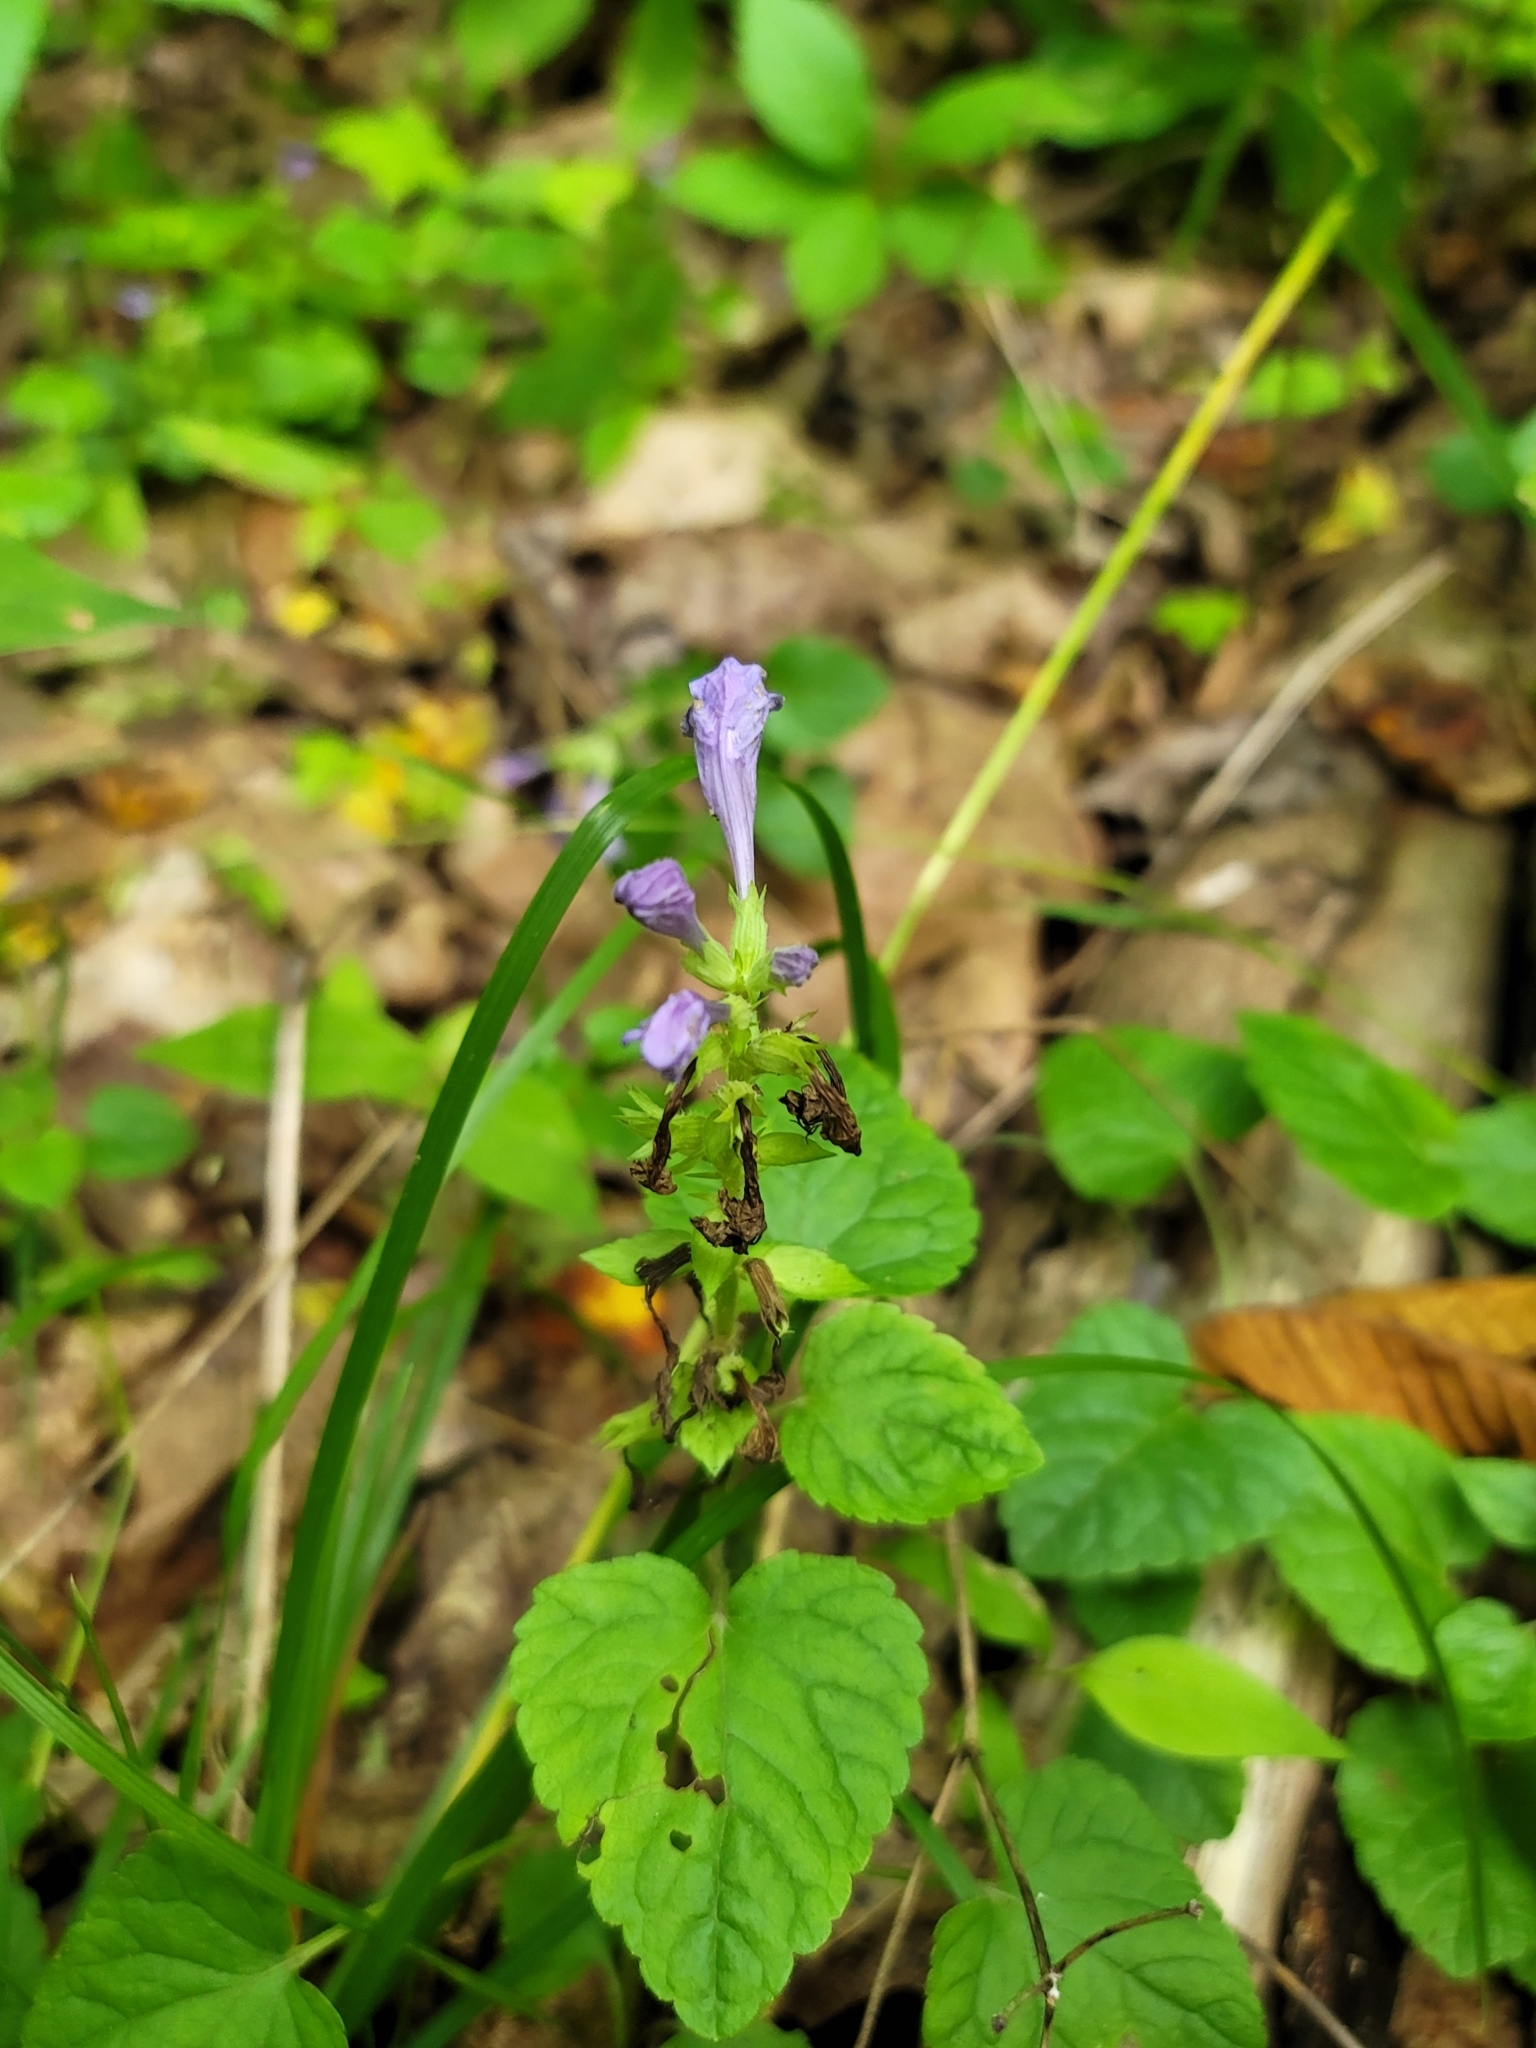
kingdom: Plantae
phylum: Tracheophyta
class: Magnoliopsida
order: Lamiales
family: Lamiaceae
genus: Meehania
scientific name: Meehania cordata
